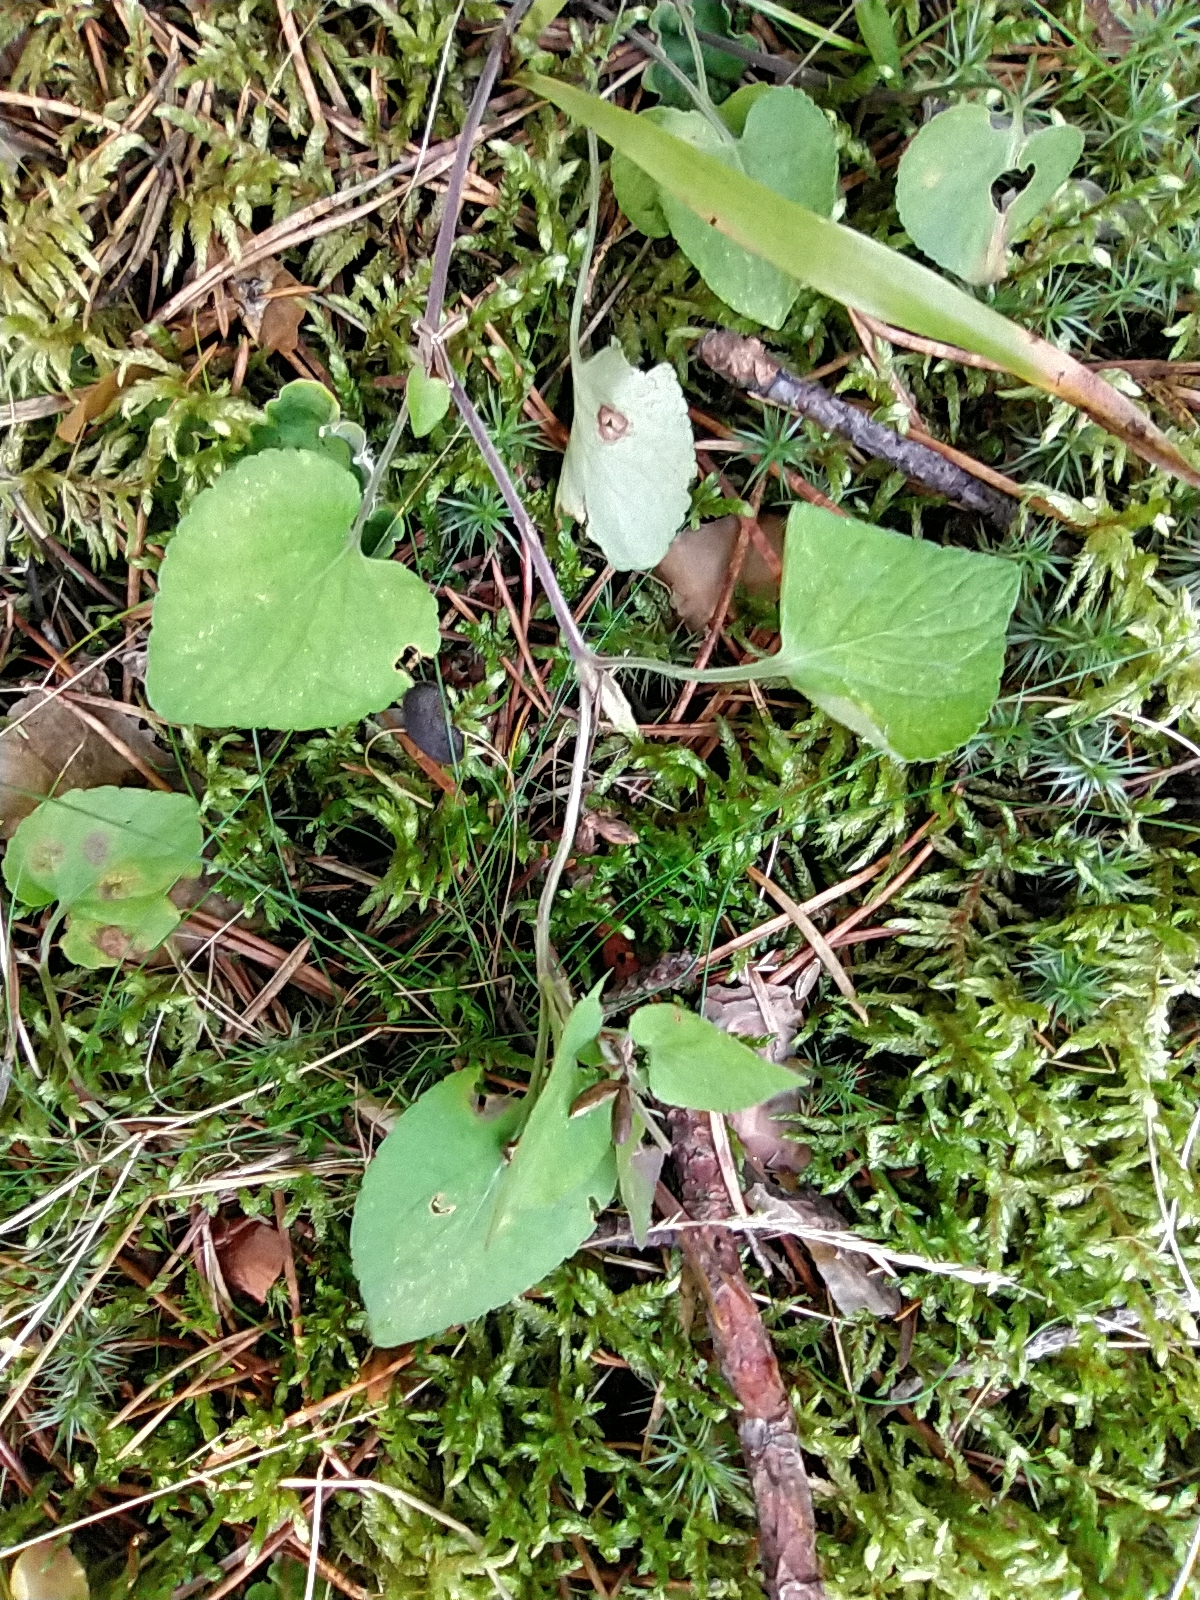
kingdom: Plantae
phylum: Tracheophyta
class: Magnoliopsida
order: Malpighiales
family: Violaceae
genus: Viola
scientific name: Viola canina
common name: Heath dog-violet
